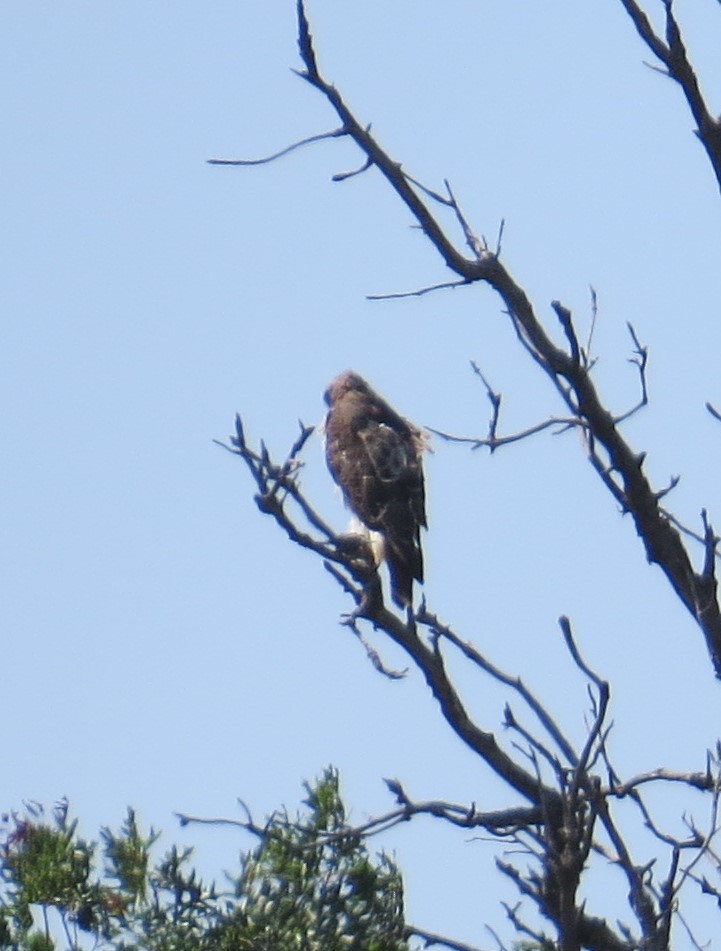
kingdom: Animalia
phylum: Chordata
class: Aves
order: Accipitriformes
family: Accipitridae
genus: Buteo
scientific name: Buteo jamaicensis
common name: Red-tailed hawk
